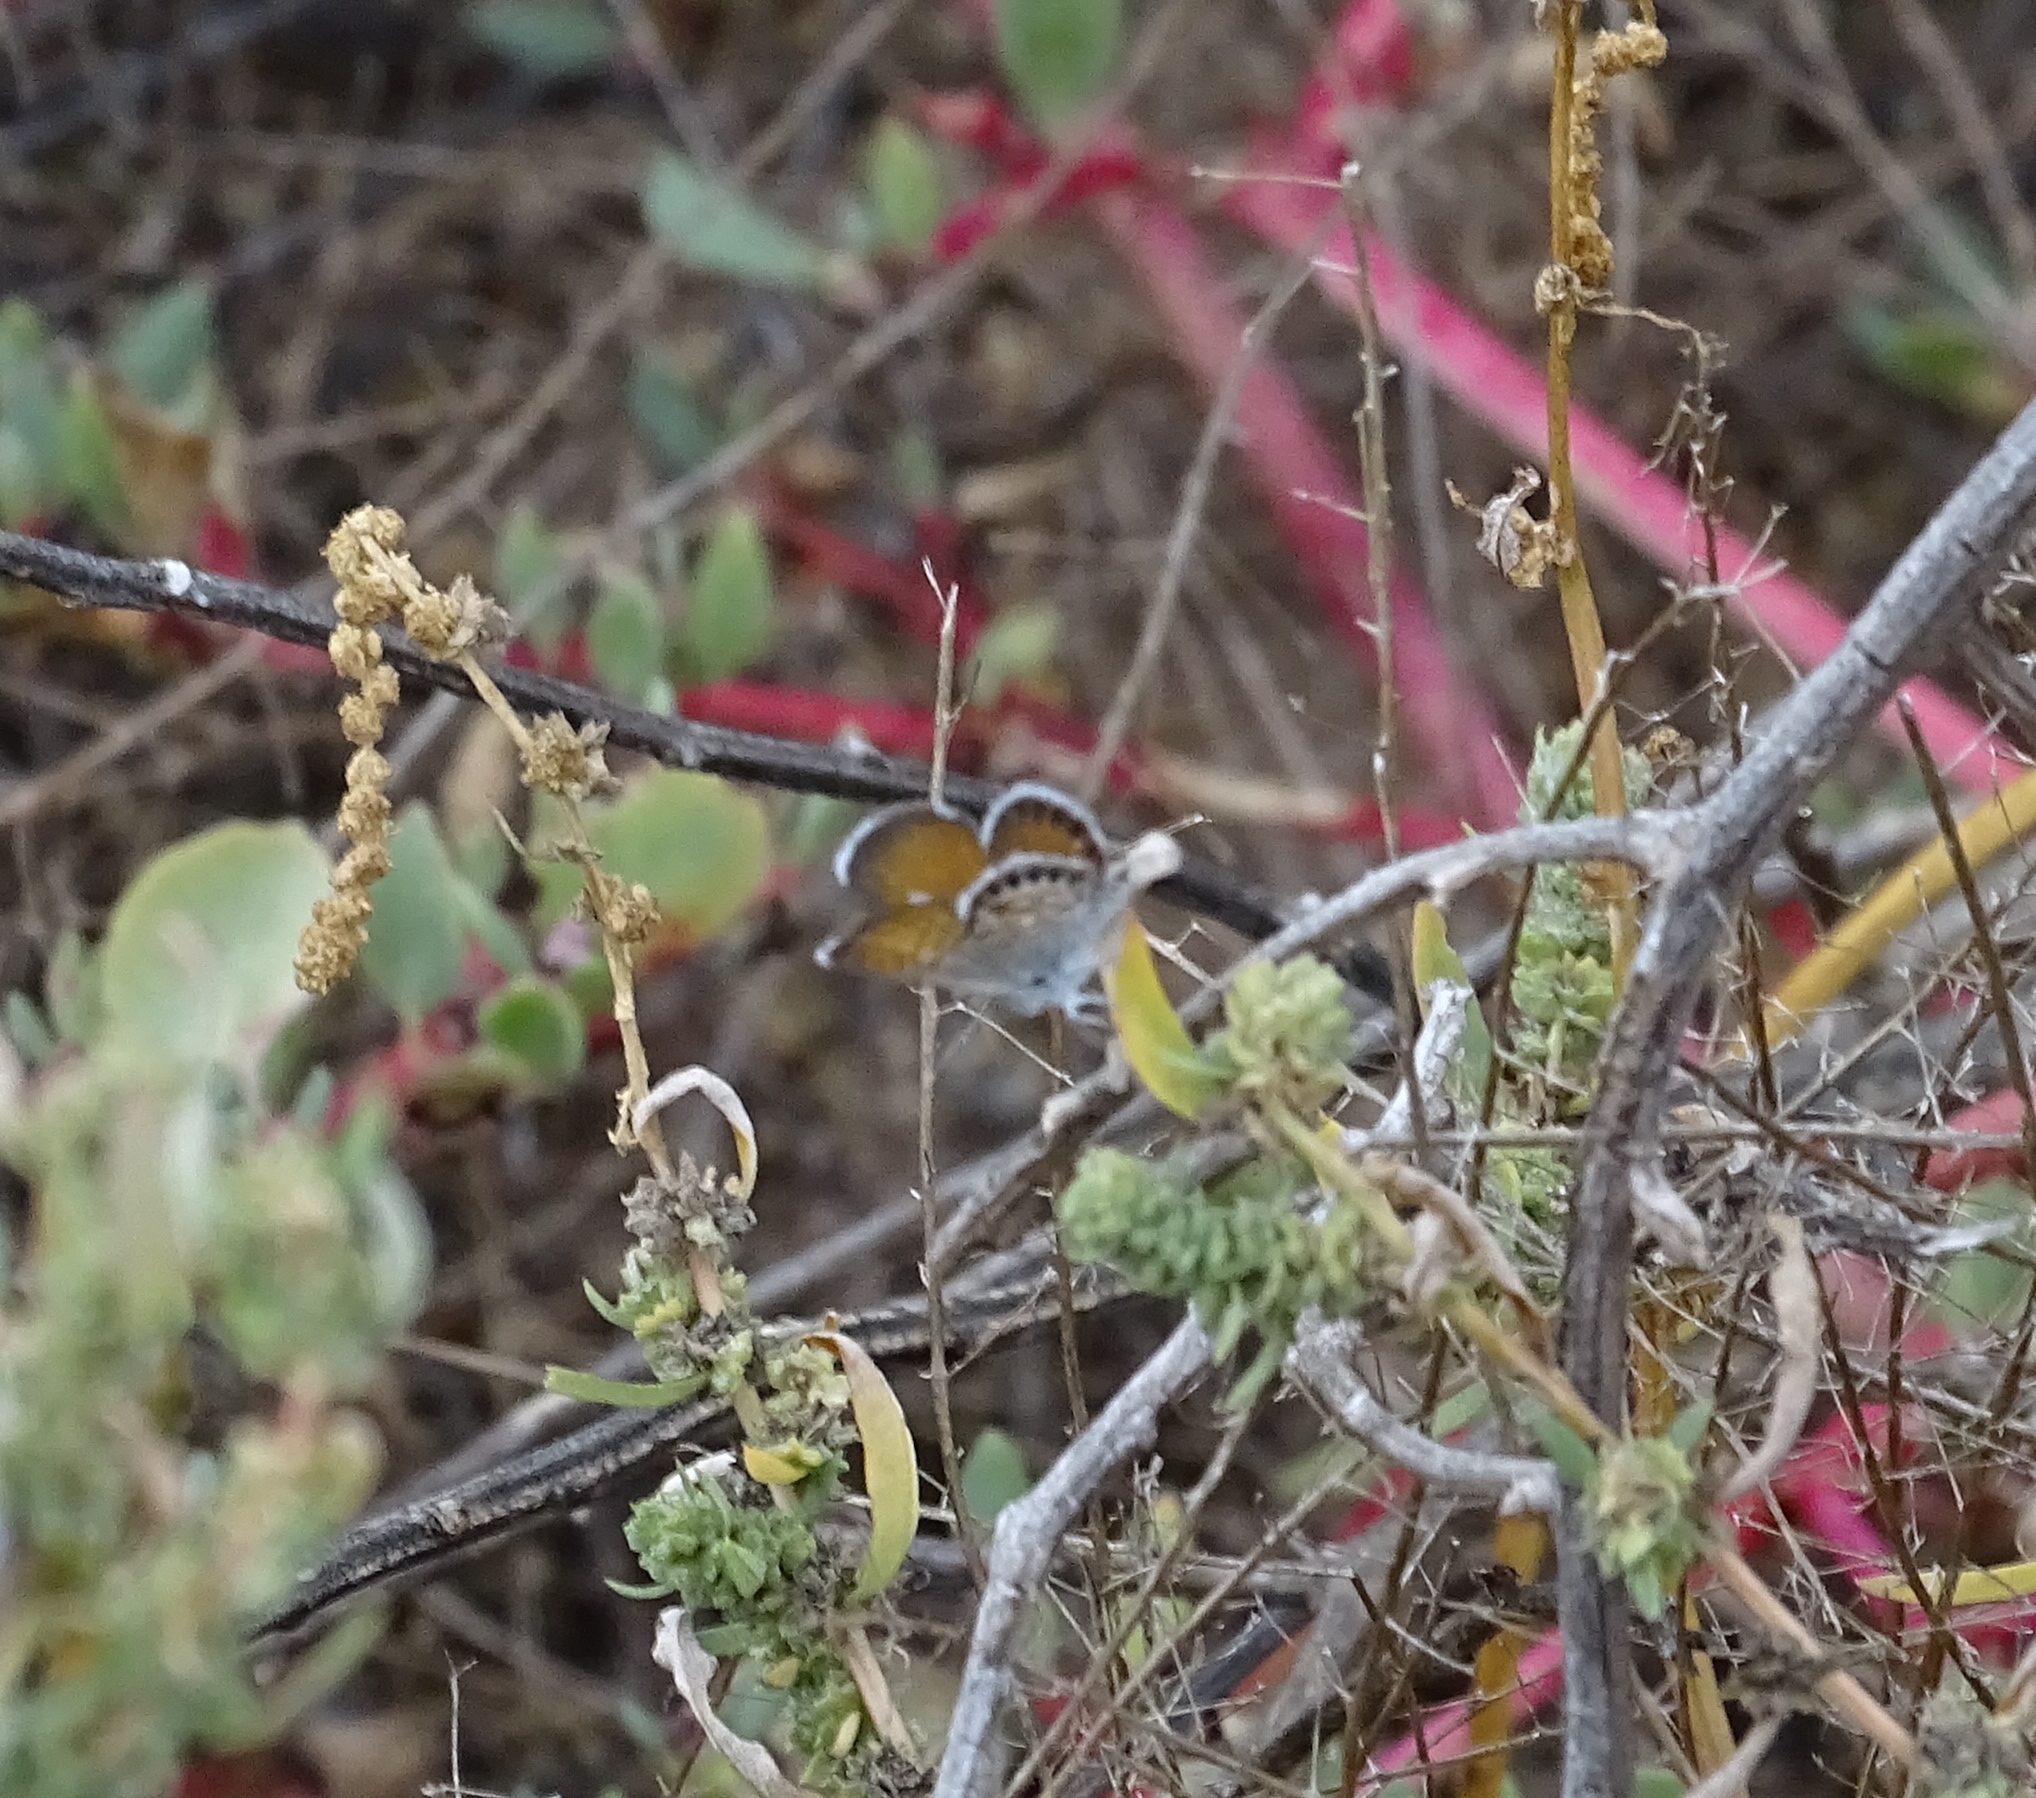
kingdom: Animalia
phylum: Arthropoda
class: Insecta
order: Lepidoptera
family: Lycaenidae
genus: Brephidium
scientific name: Brephidium exilis
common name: Pygmy blue
